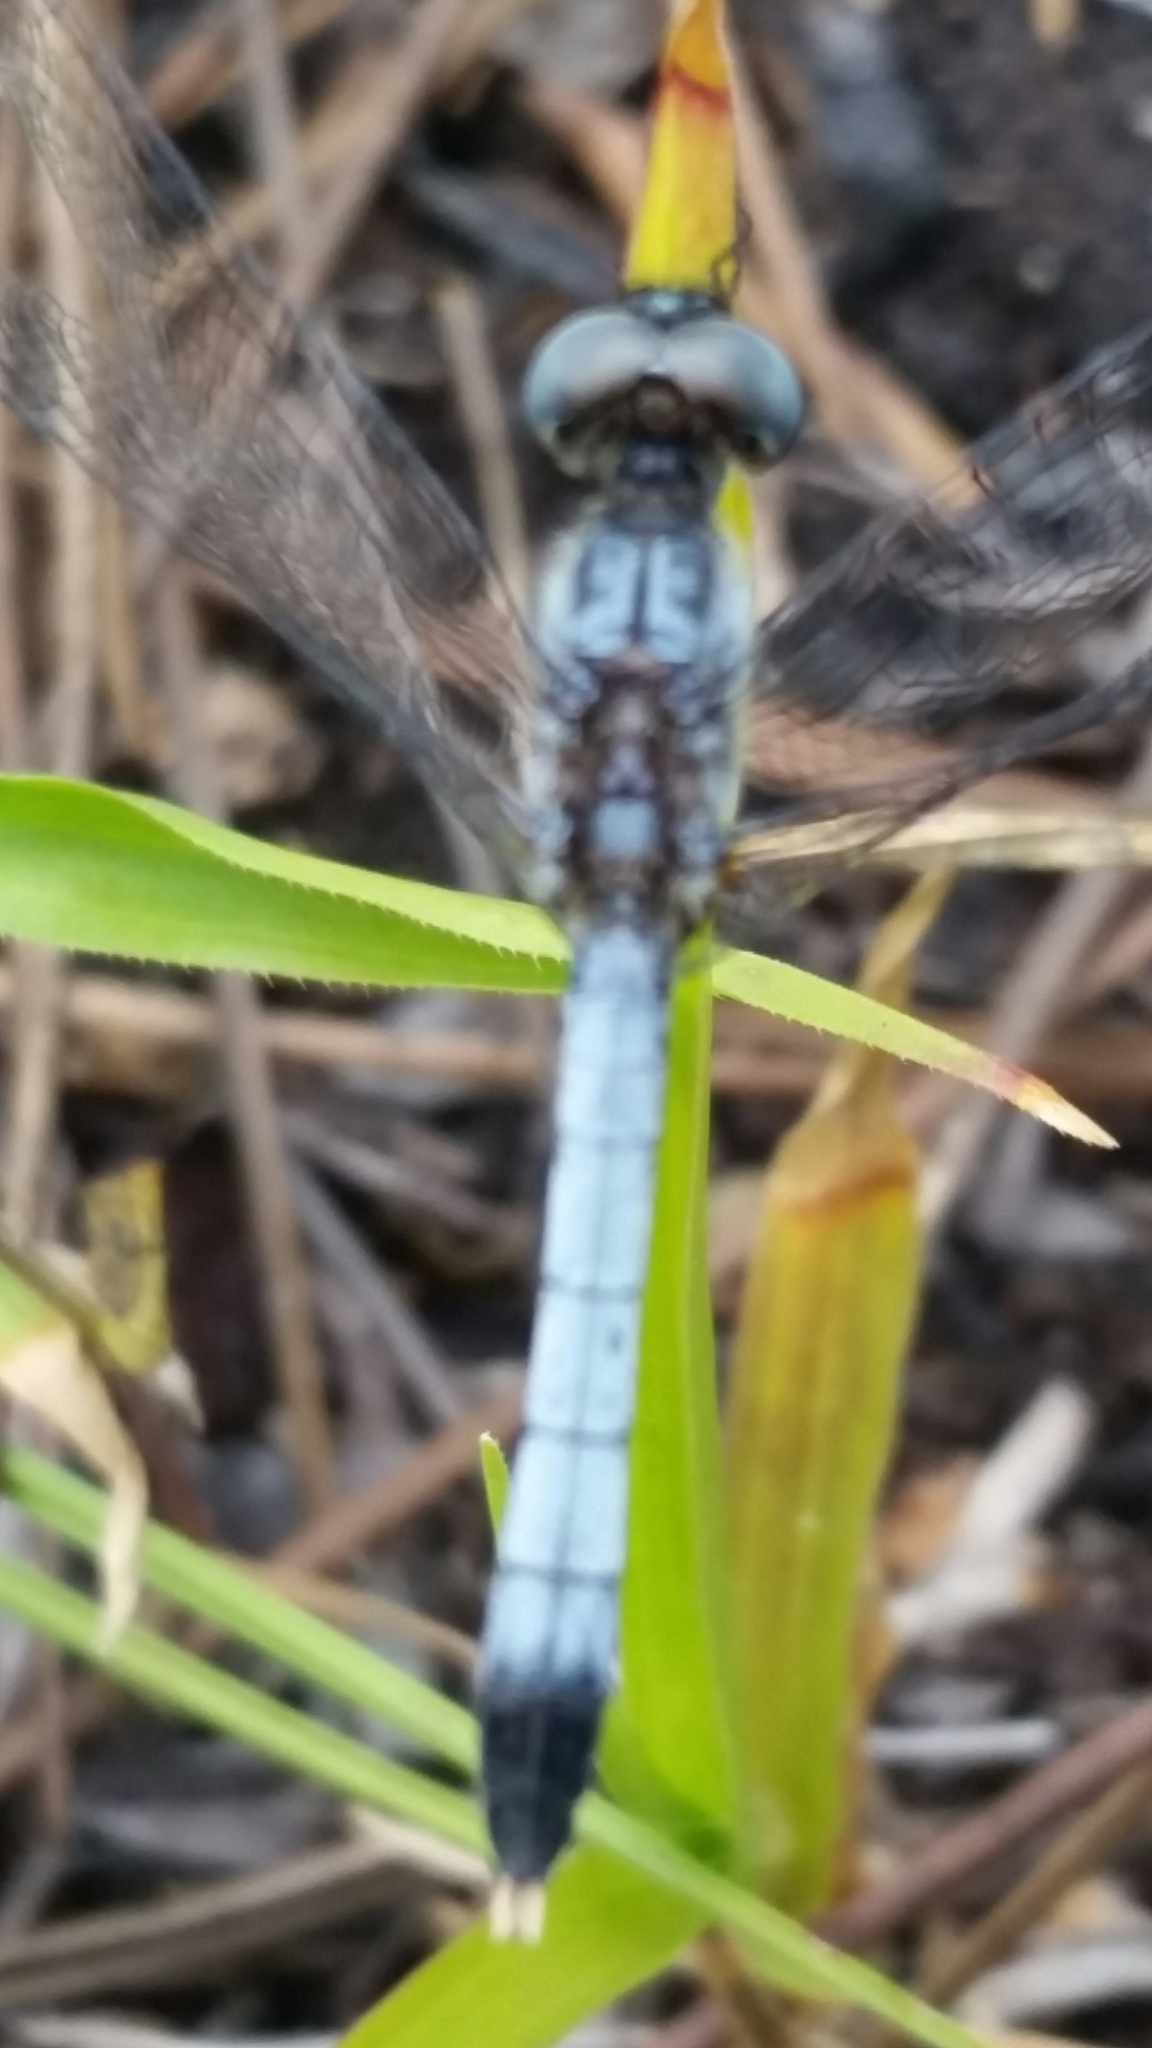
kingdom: Animalia
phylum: Arthropoda
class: Insecta
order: Odonata
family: Libellulidae
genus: Erythrodiplax
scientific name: Erythrodiplax minuscula
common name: Little blue dragonlet
